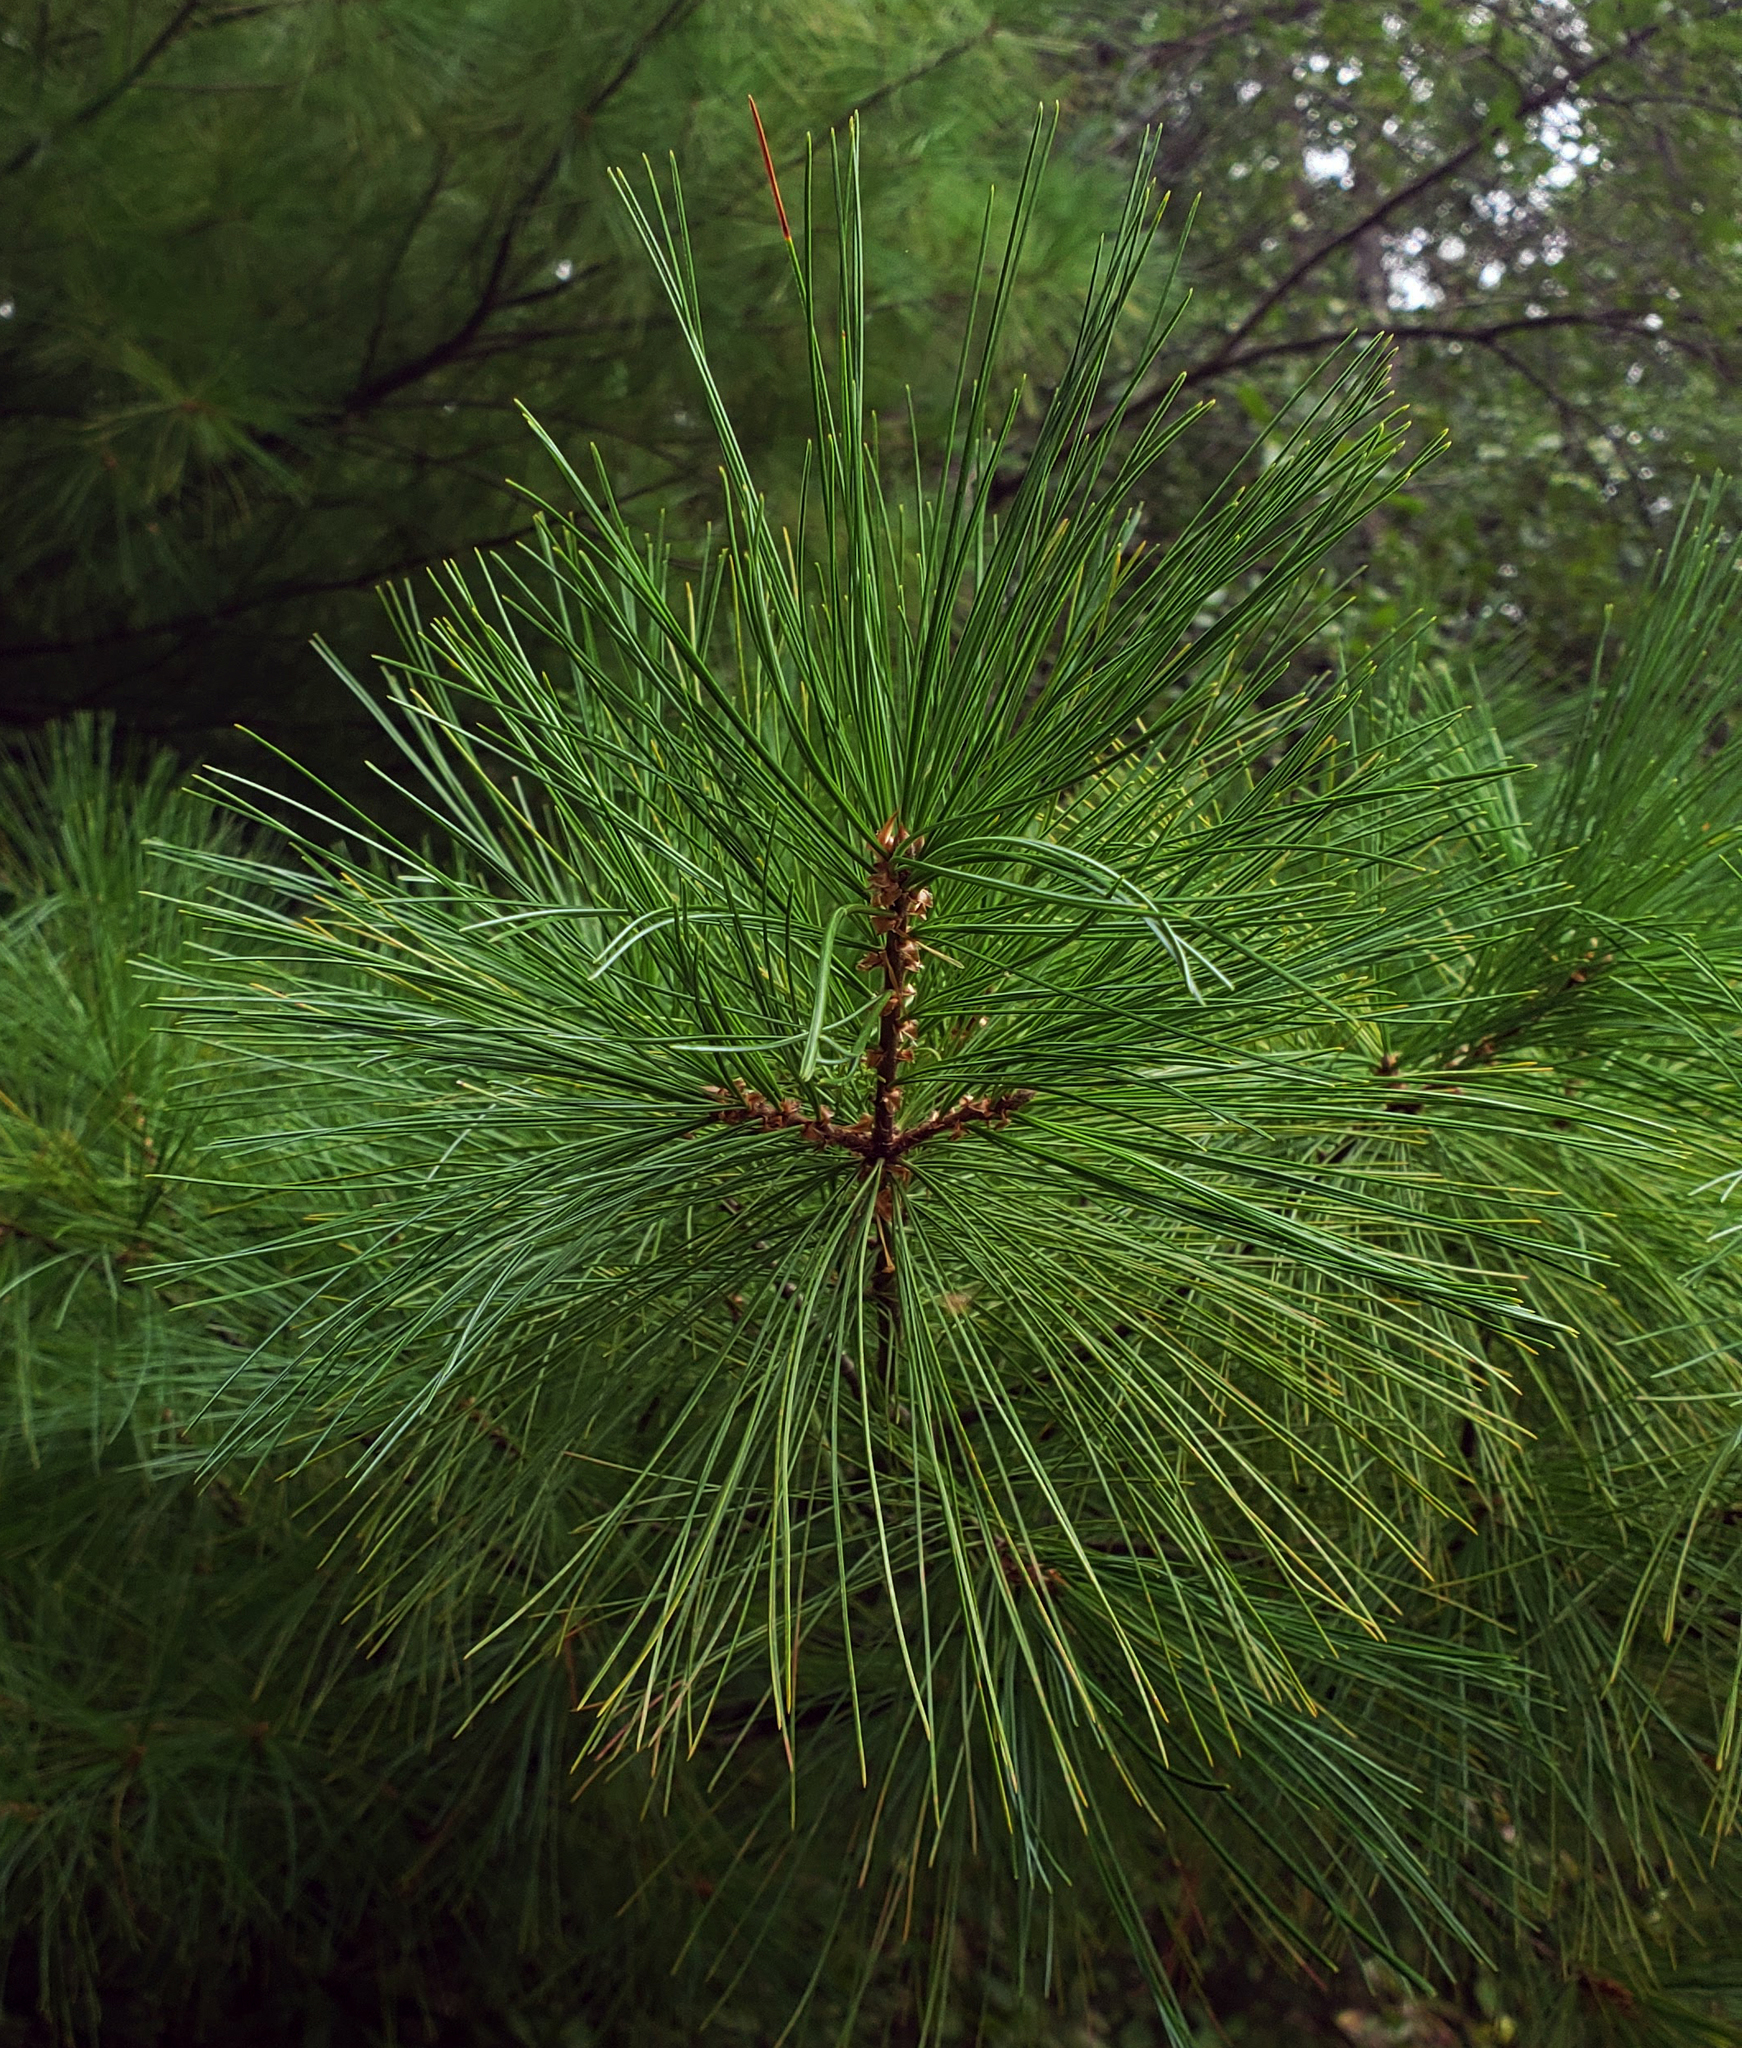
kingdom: Plantae
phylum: Tracheophyta
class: Pinopsida
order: Pinales
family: Pinaceae
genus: Pinus
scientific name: Pinus strobus
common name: Weymouth pine
